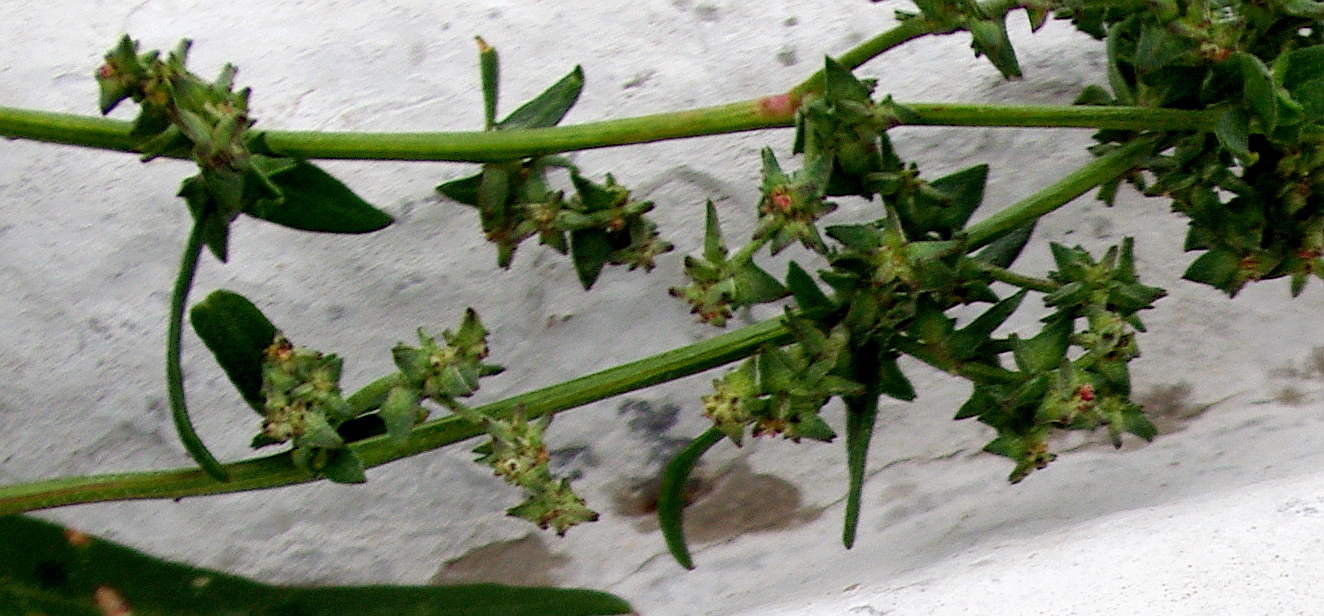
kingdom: Plantae
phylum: Tracheophyta
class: Magnoliopsida
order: Caryophyllales
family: Amaranthaceae
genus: Atriplex
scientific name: Atriplex patula
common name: Common orache
